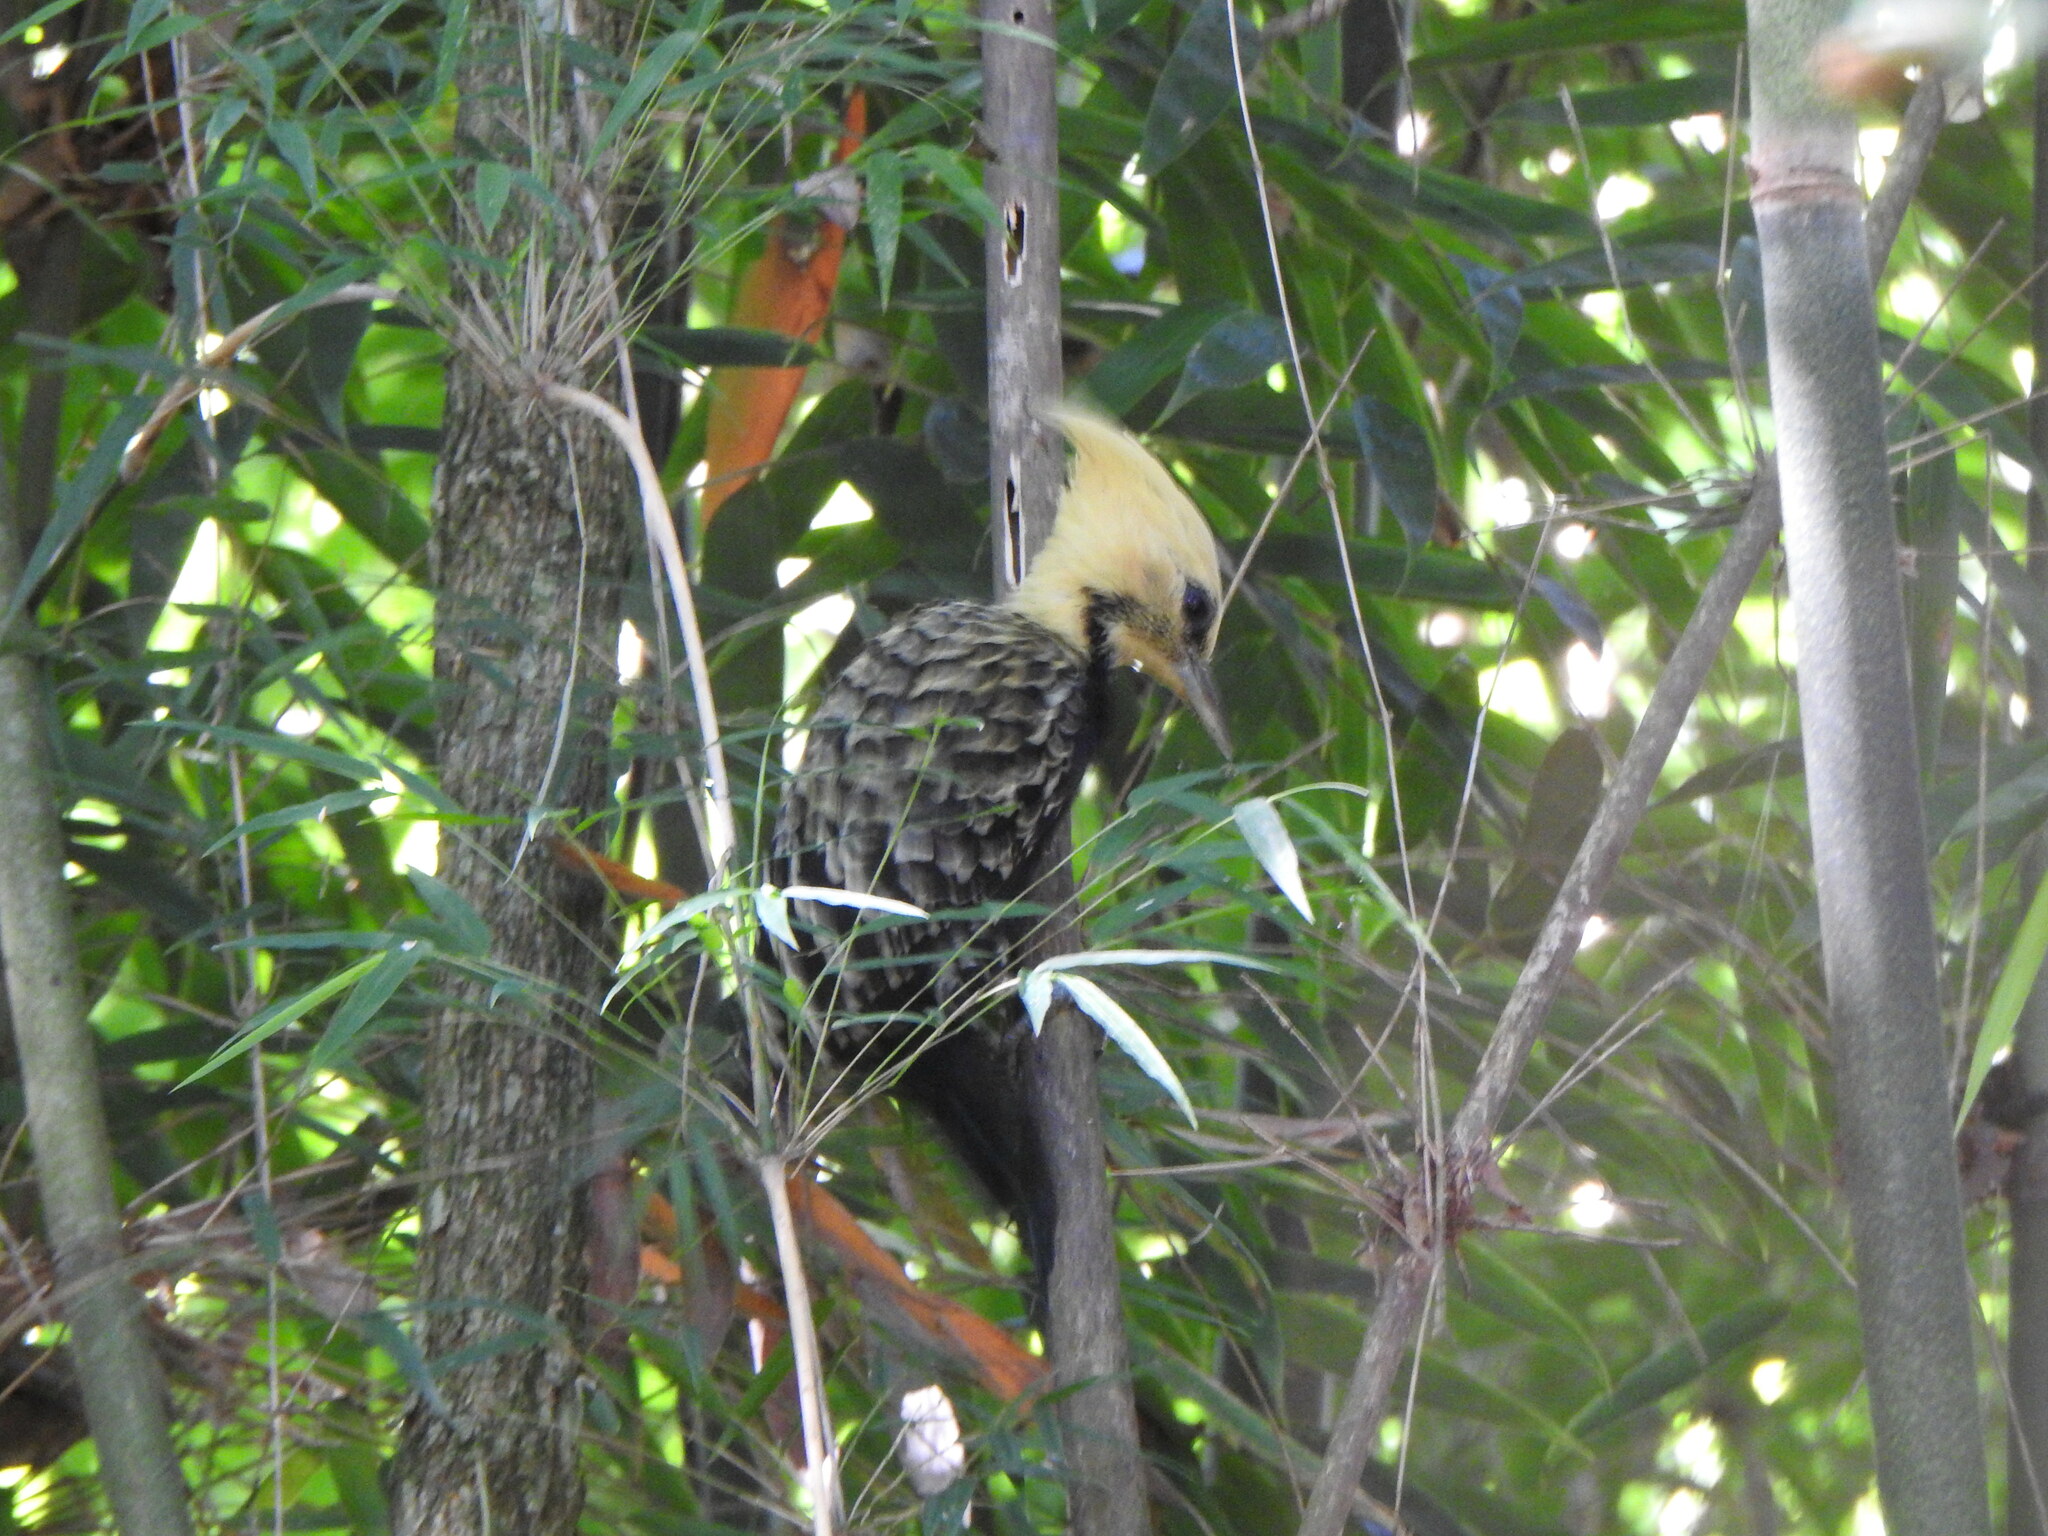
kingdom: Animalia
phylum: Chordata
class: Aves
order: Piciformes
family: Picidae
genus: Celeus
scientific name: Celeus flavescens
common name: Blond-crested woodpecker
